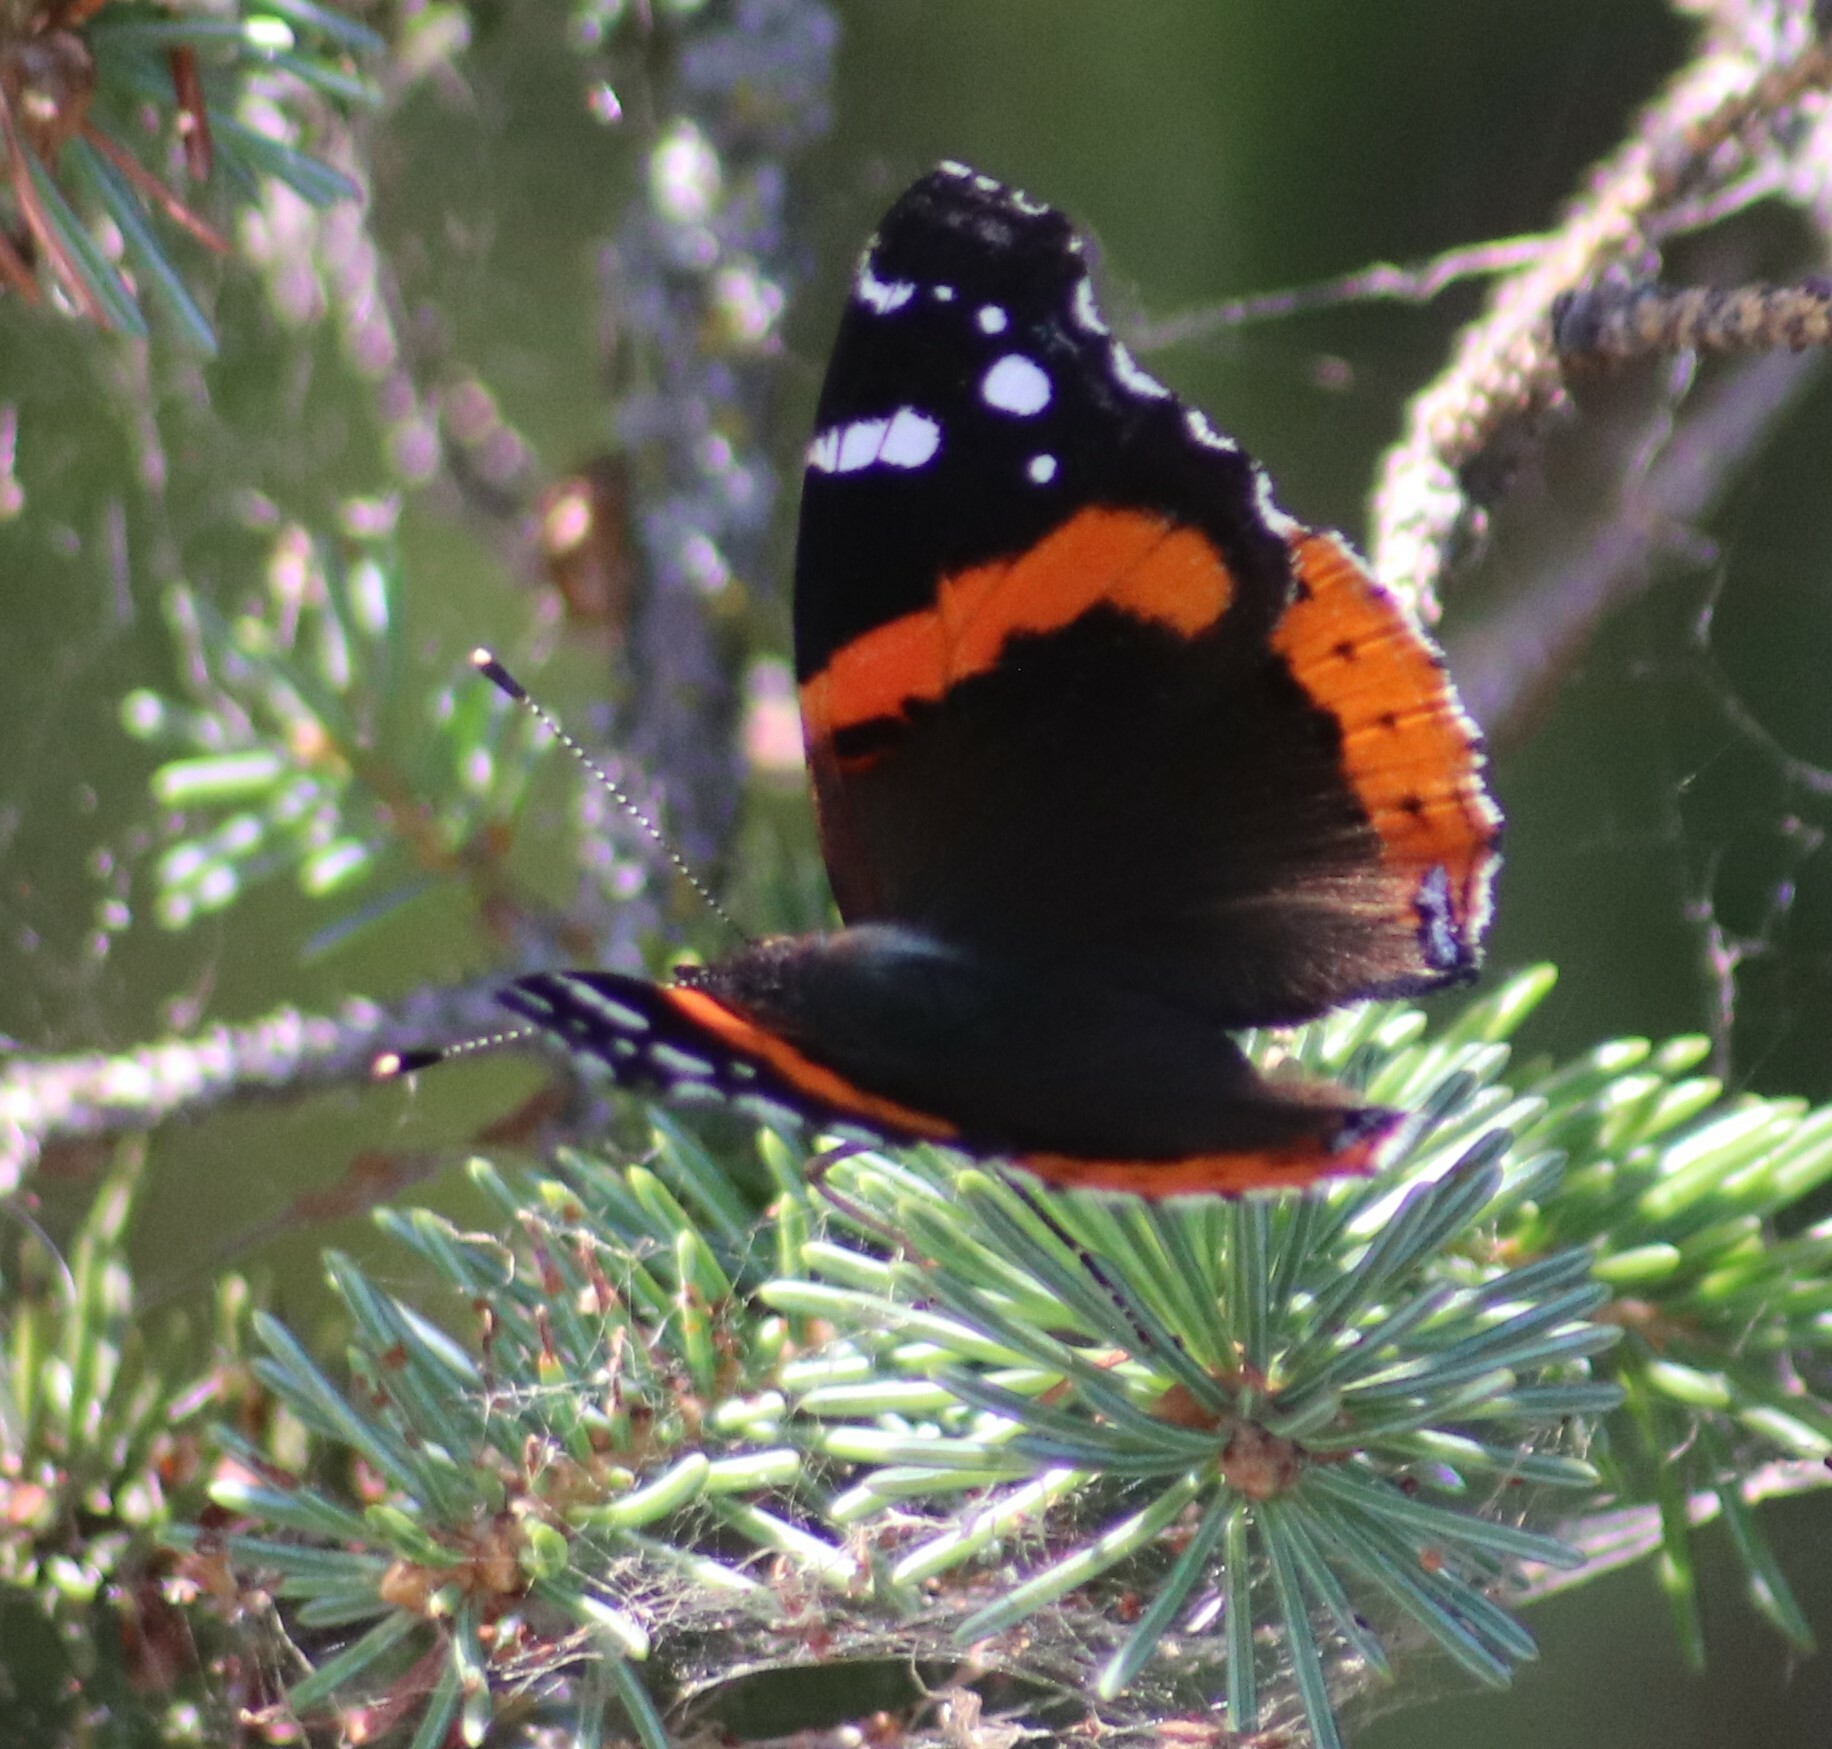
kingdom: Animalia
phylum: Arthropoda
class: Insecta
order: Lepidoptera
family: Nymphalidae
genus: Vanessa
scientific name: Vanessa atalanta
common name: Red admiral
